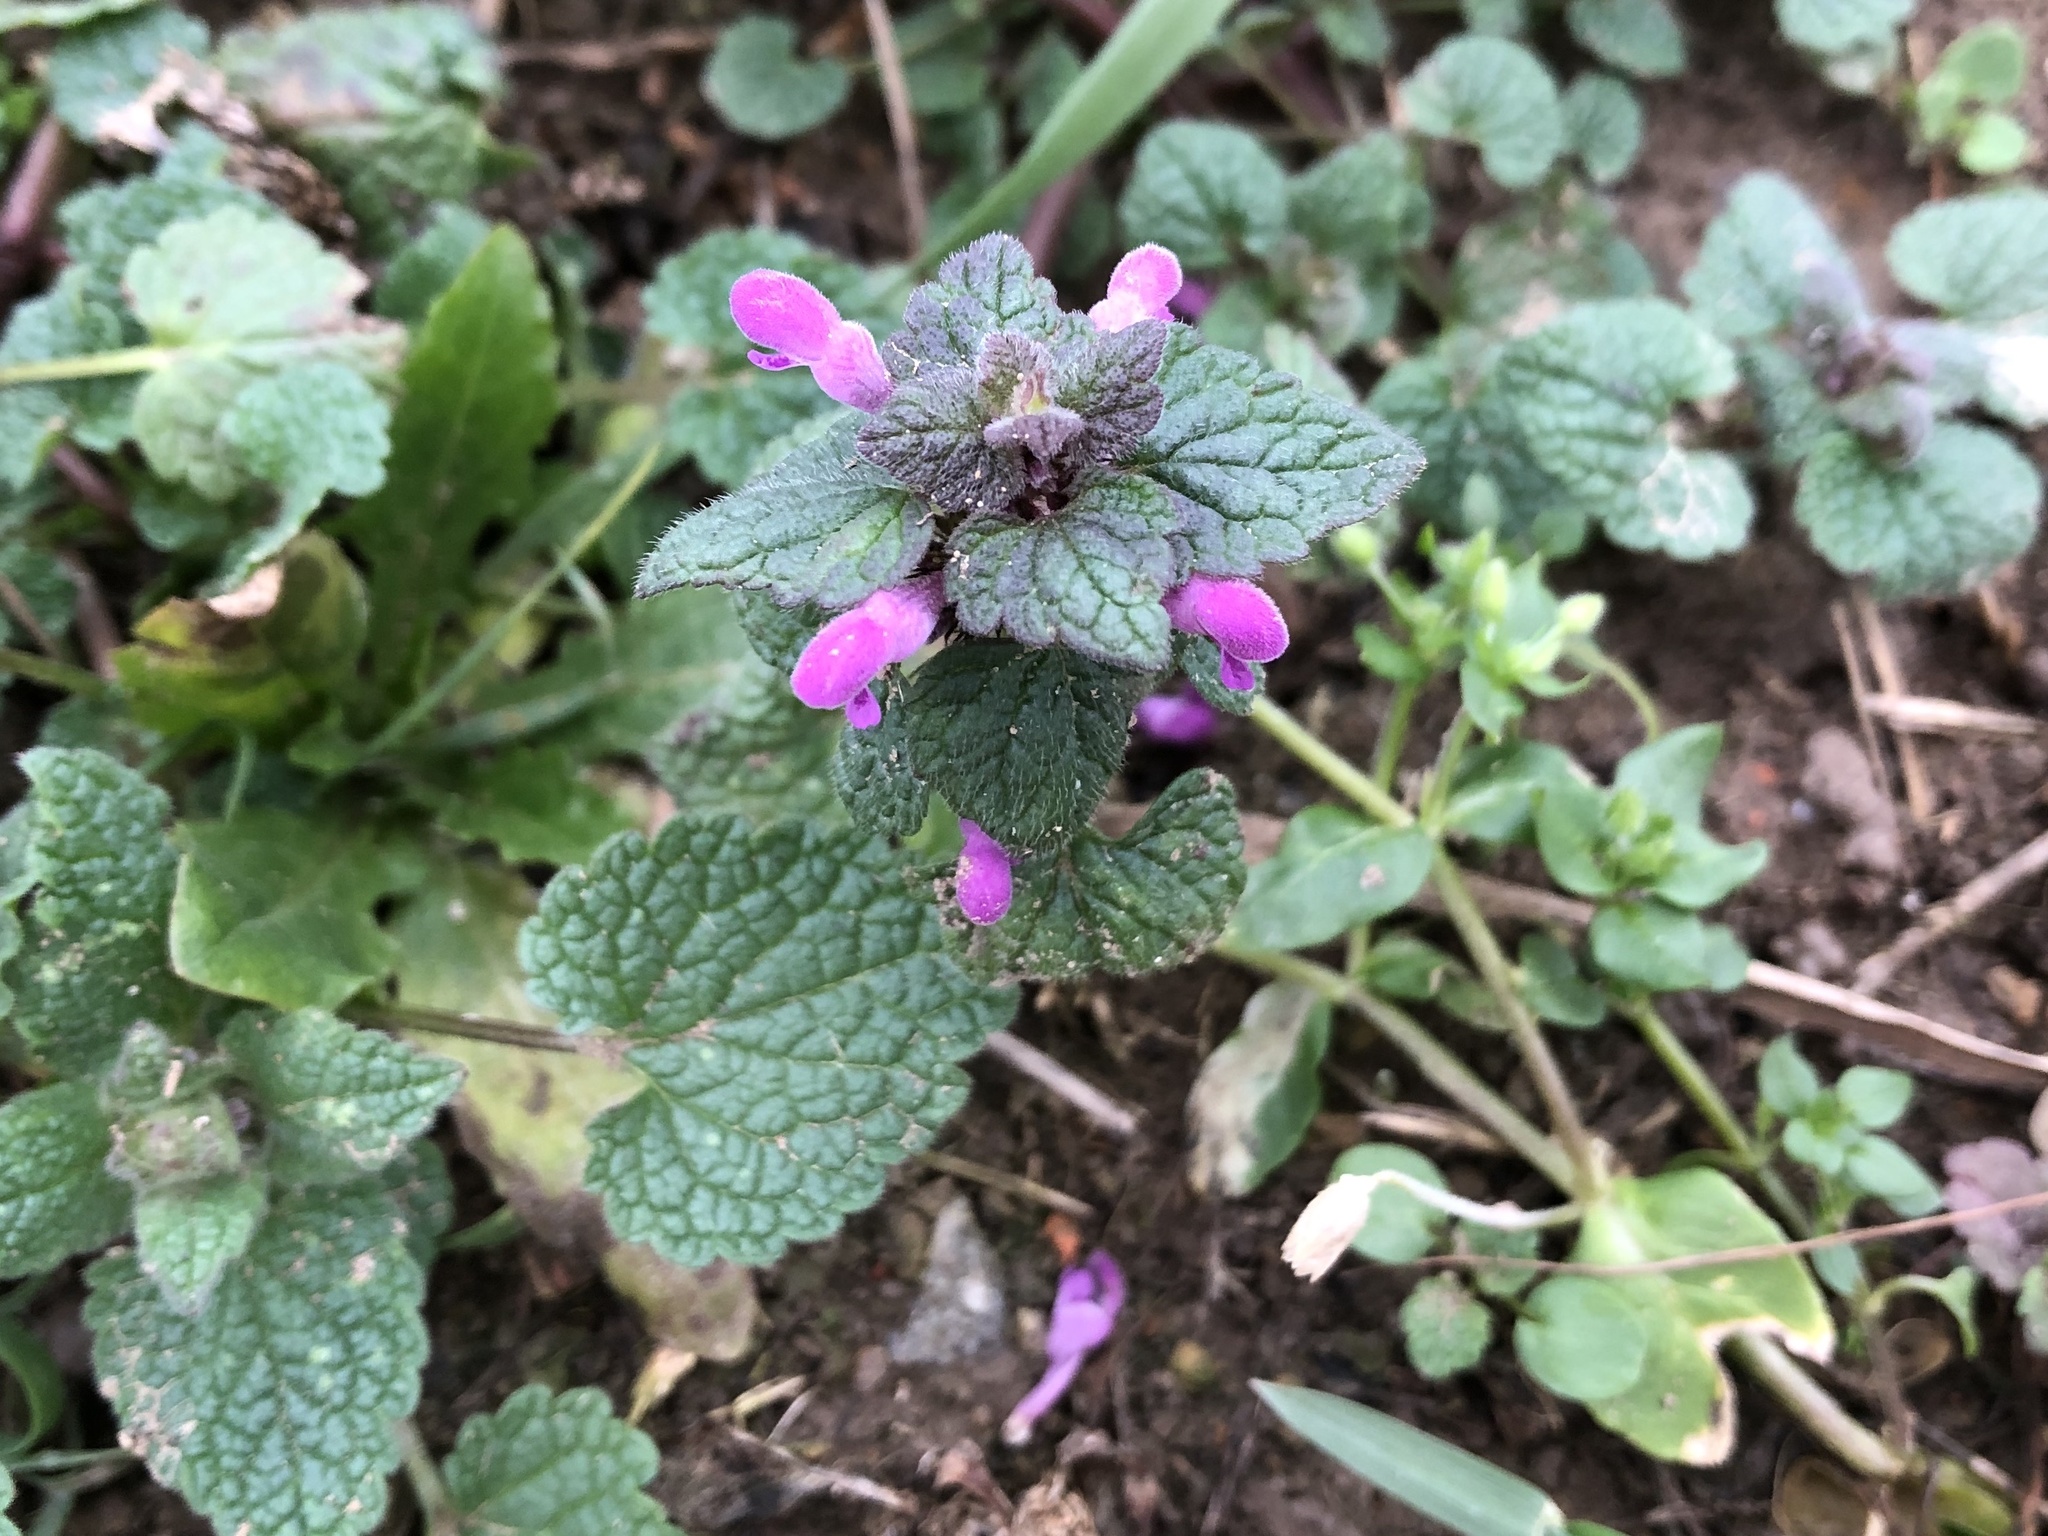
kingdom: Plantae
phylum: Tracheophyta
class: Magnoliopsida
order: Lamiales
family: Lamiaceae
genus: Lamium
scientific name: Lamium purpureum
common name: Red dead-nettle
